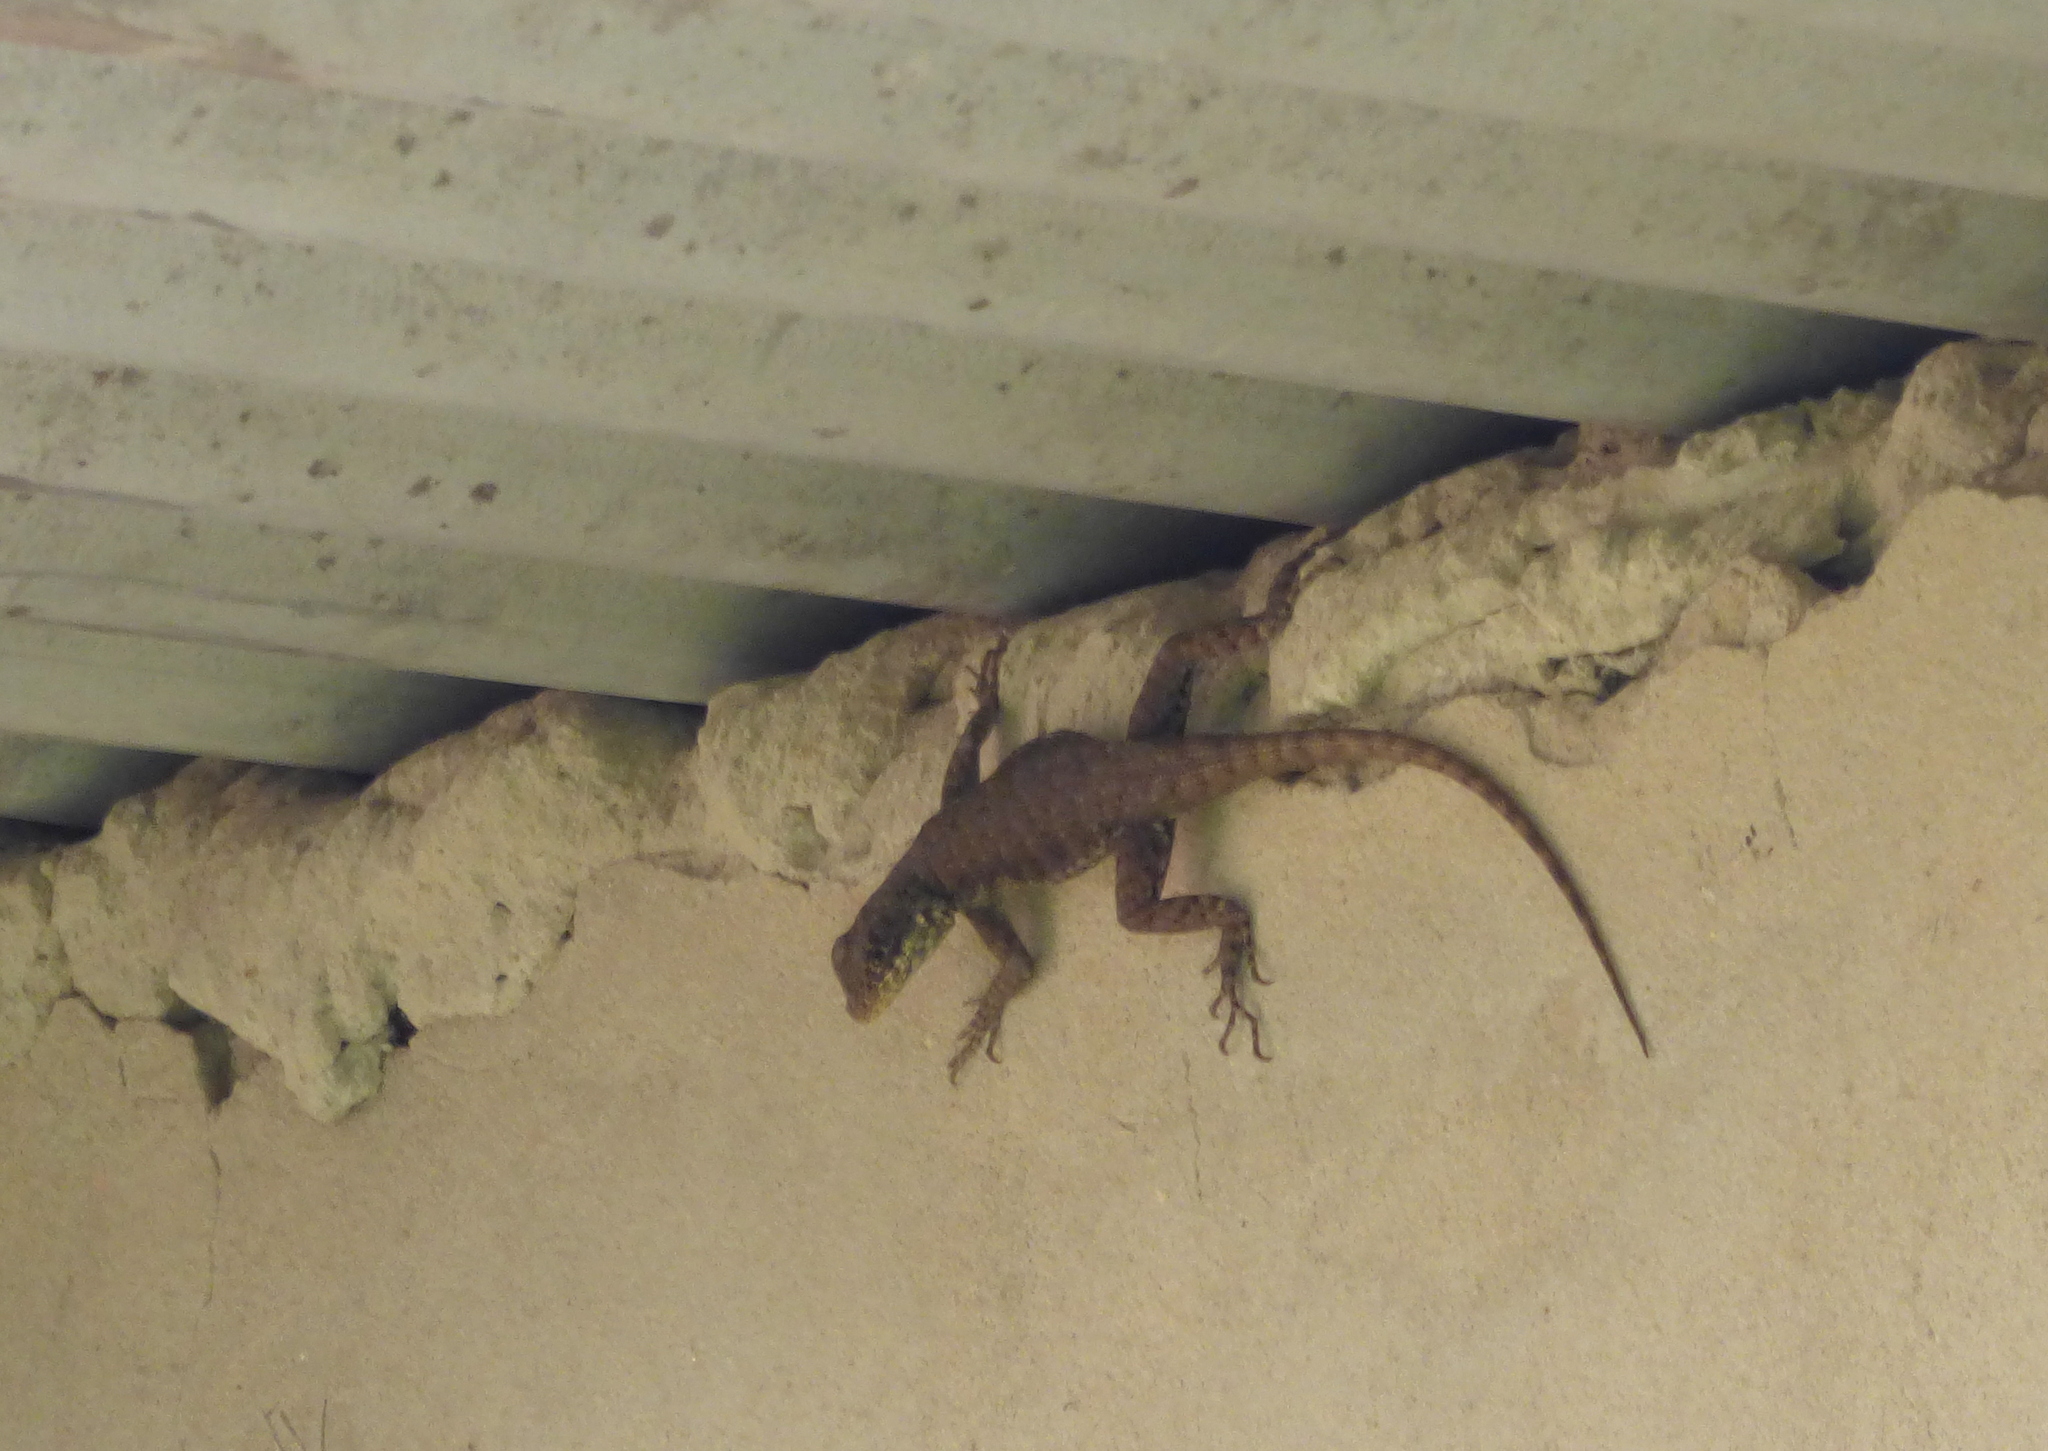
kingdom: Animalia
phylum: Chordata
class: Squamata
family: Tropiduridae
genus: Tropidurus
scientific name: Tropidurus torquatus
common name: Amazon lava lizard
